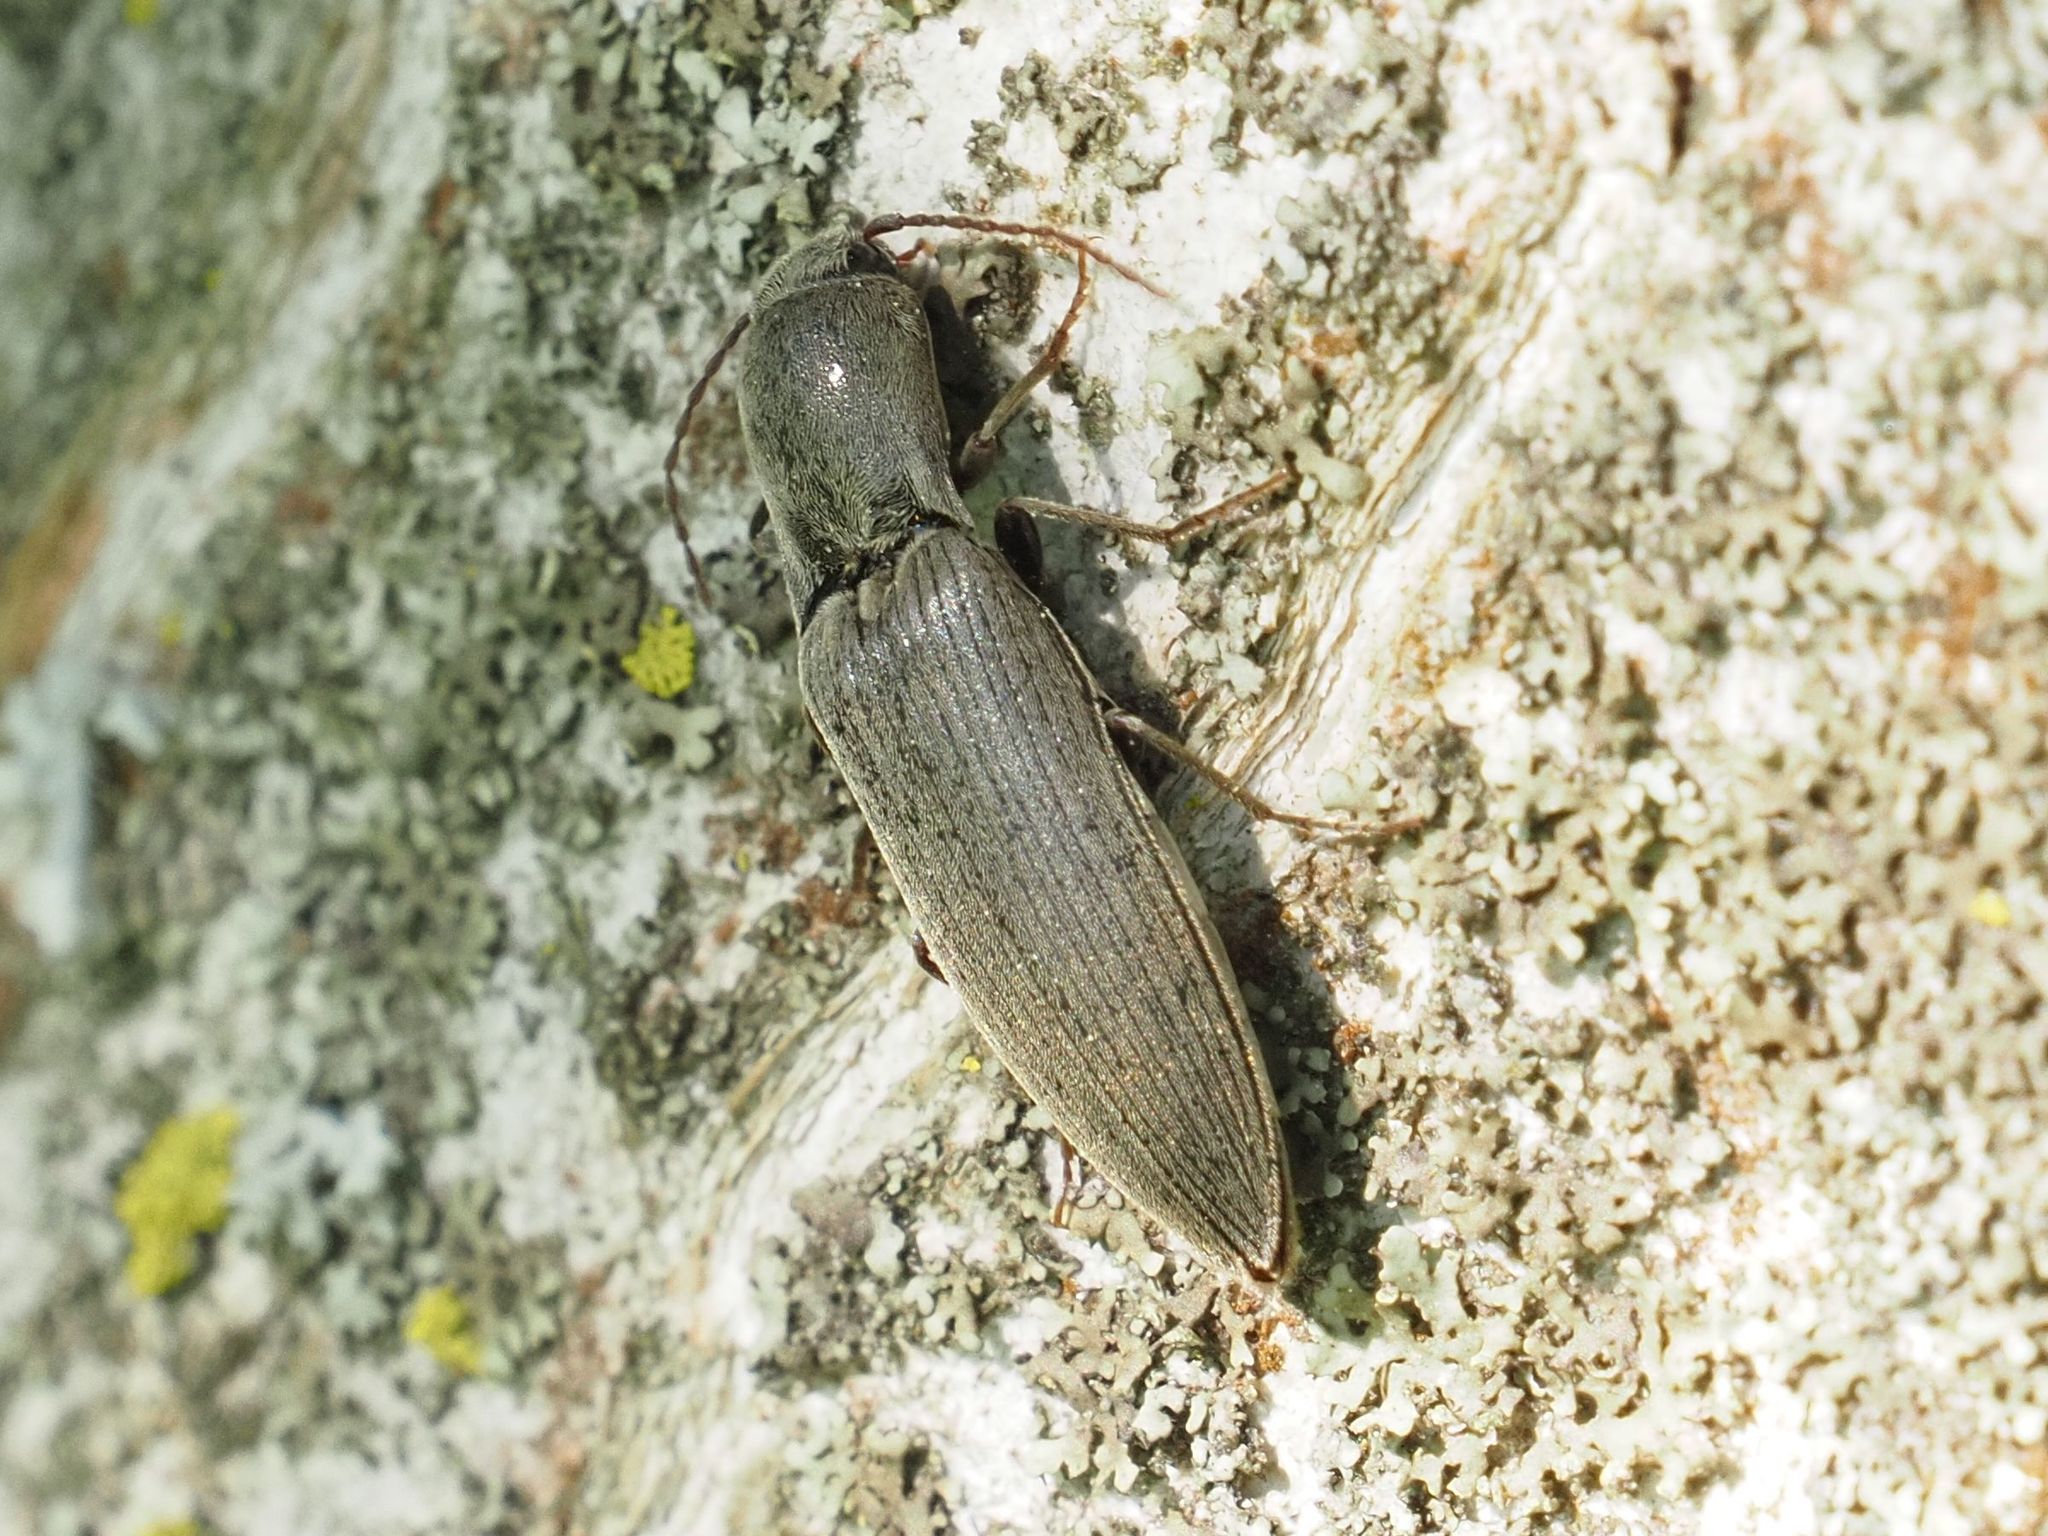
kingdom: Animalia
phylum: Arthropoda
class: Insecta
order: Coleoptera
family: Elateridae
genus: Agriotes
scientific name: Agriotes pilosellus
